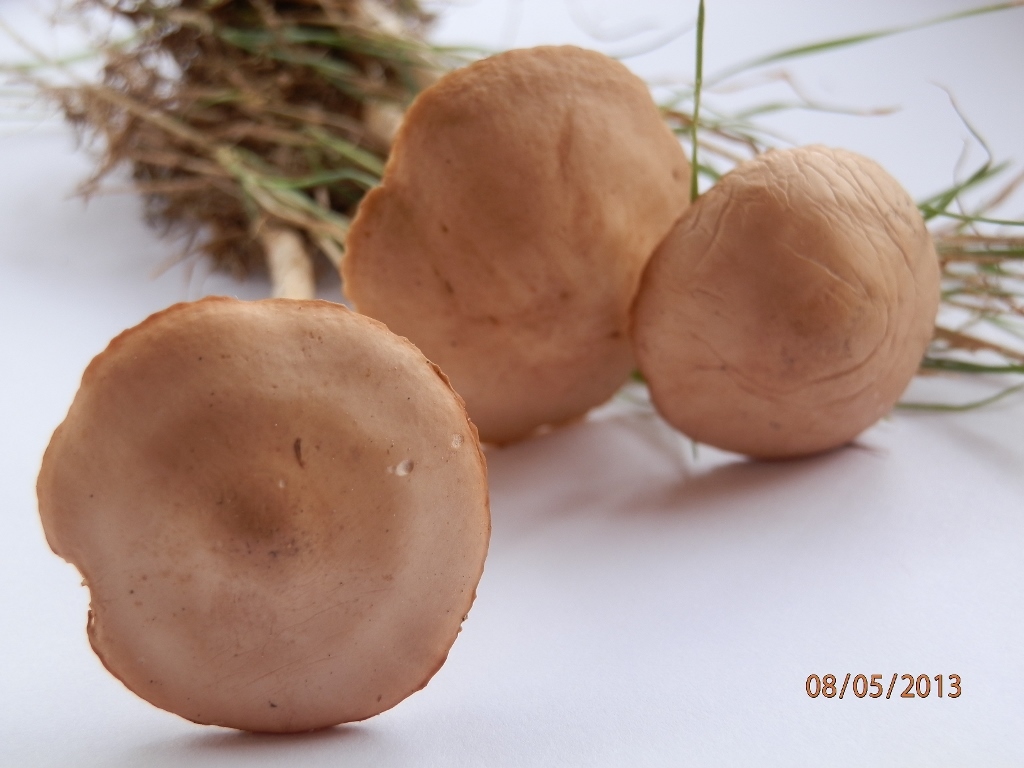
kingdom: Fungi
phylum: Basidiomycota
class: Agaricomycetes
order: Agaricales
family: Marasmiaceae
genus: Marasmius
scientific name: Marasmius oreades
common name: Fairy ring champignon
